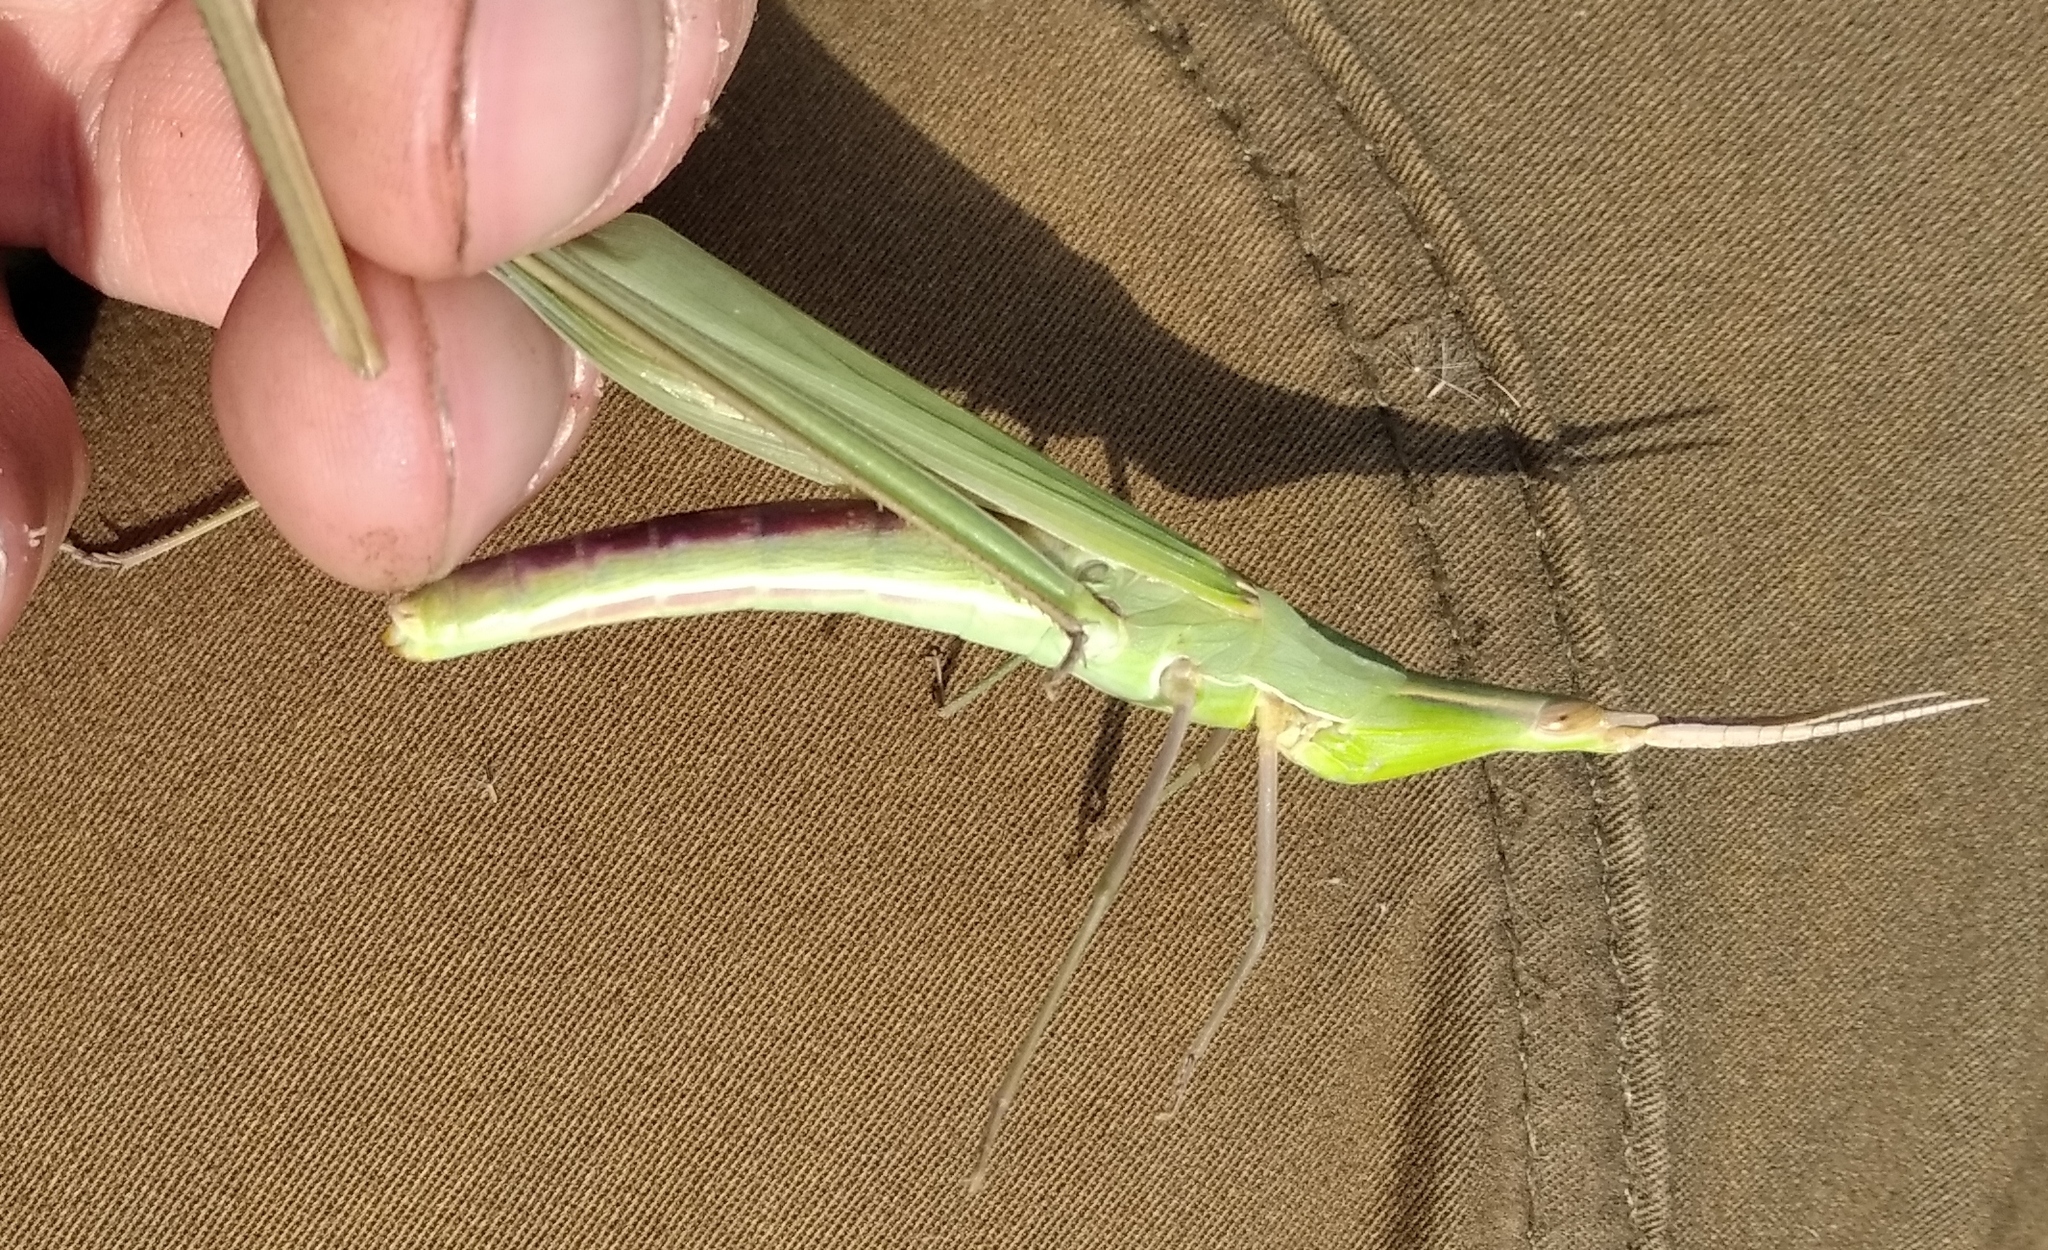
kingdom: Animalia
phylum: Arthropoda
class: Insecta
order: Orthoptera
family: Acrididae
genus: Acrida
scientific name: Acrida ungarica
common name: Common cone-headed grasshopper
